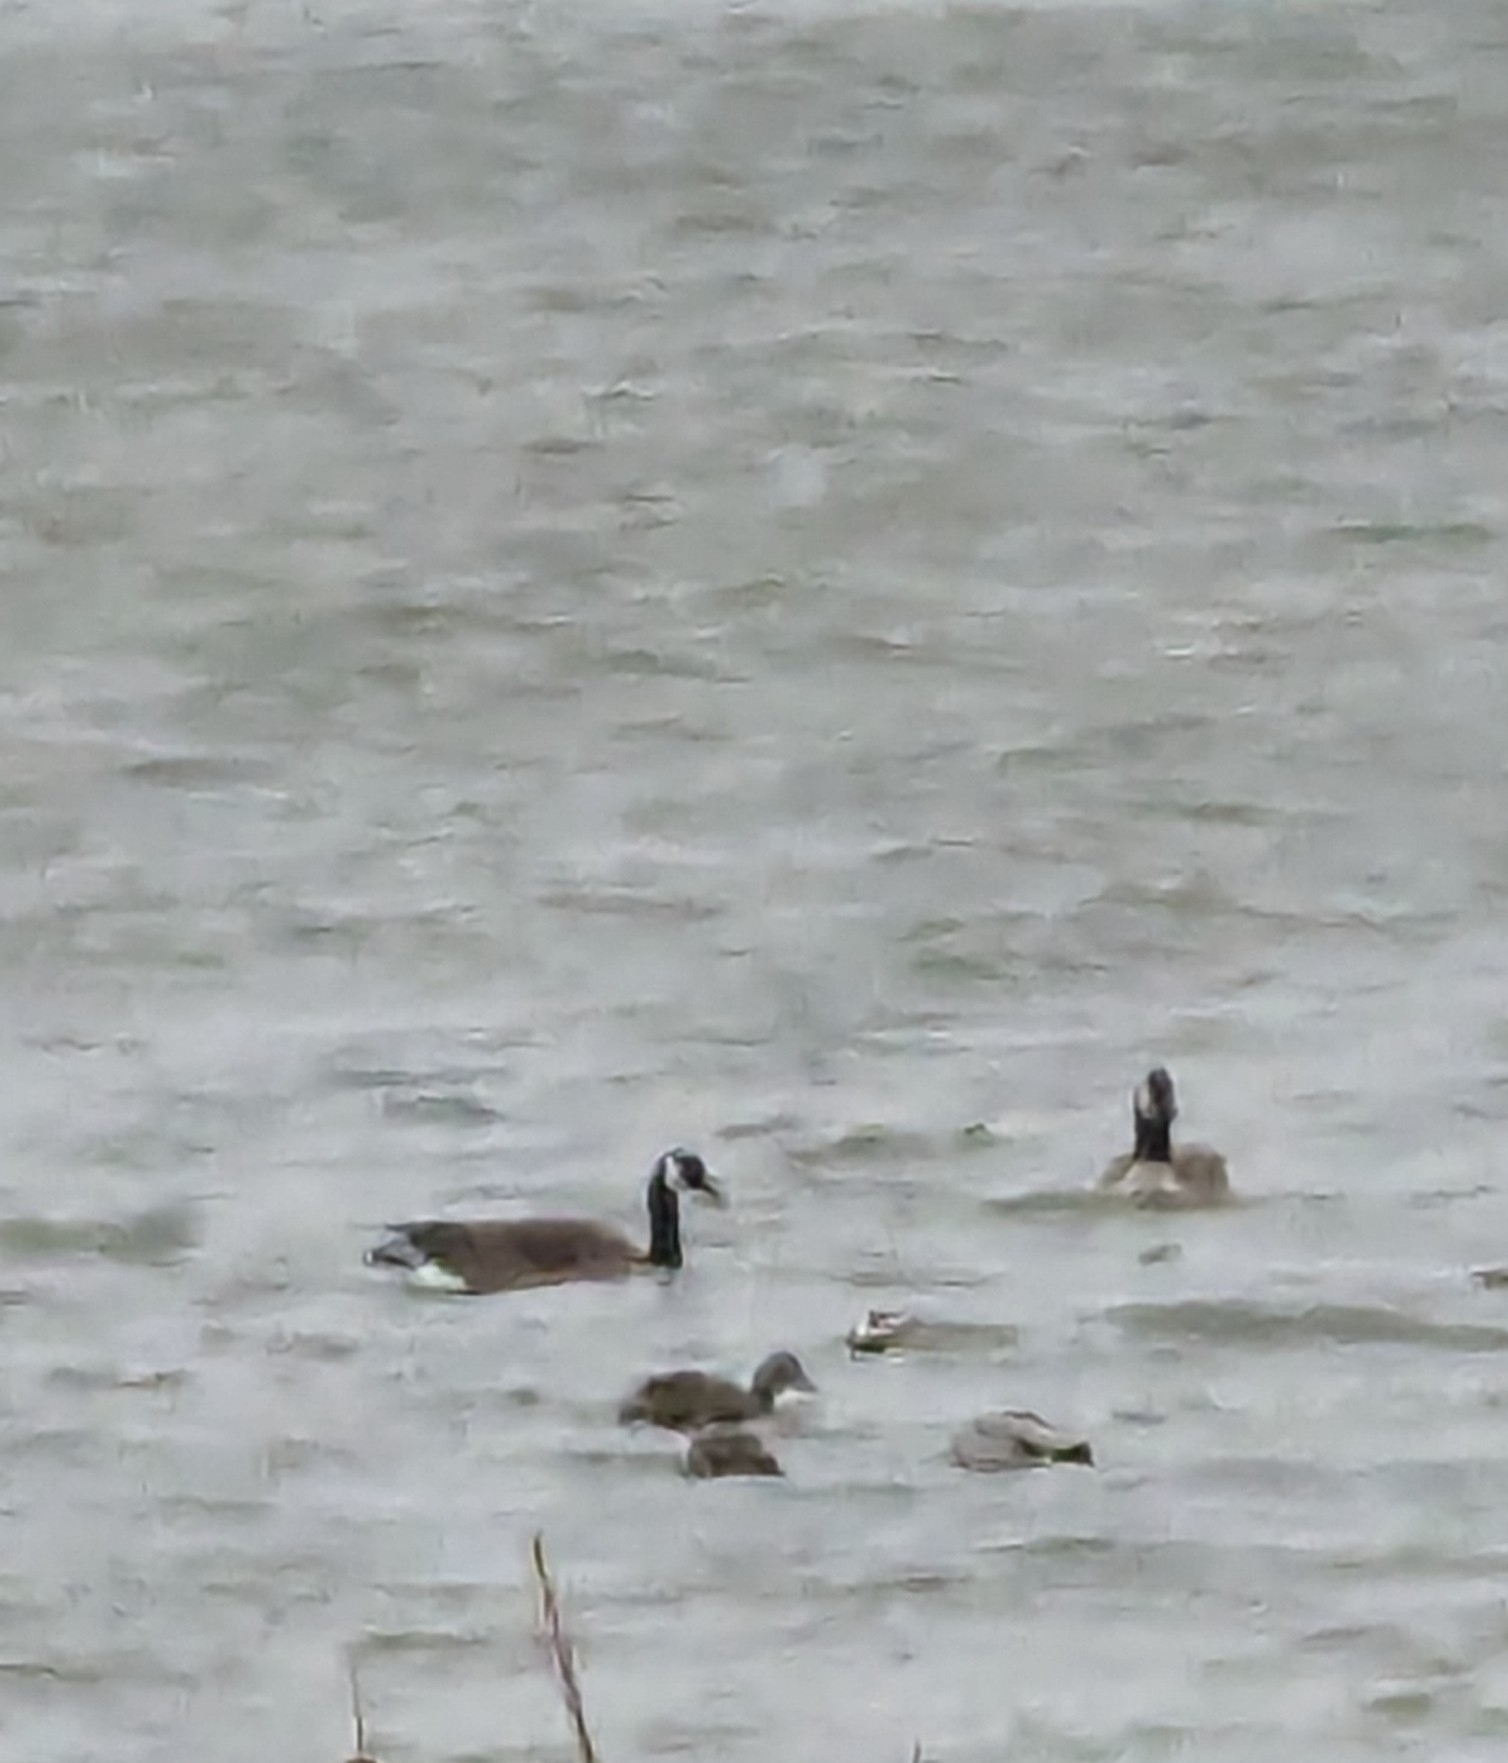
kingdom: Animalia
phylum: Chordata
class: Aves
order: Anseriformes
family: Anatidae
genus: Branta
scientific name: Branta canadensis
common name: Canada goose
